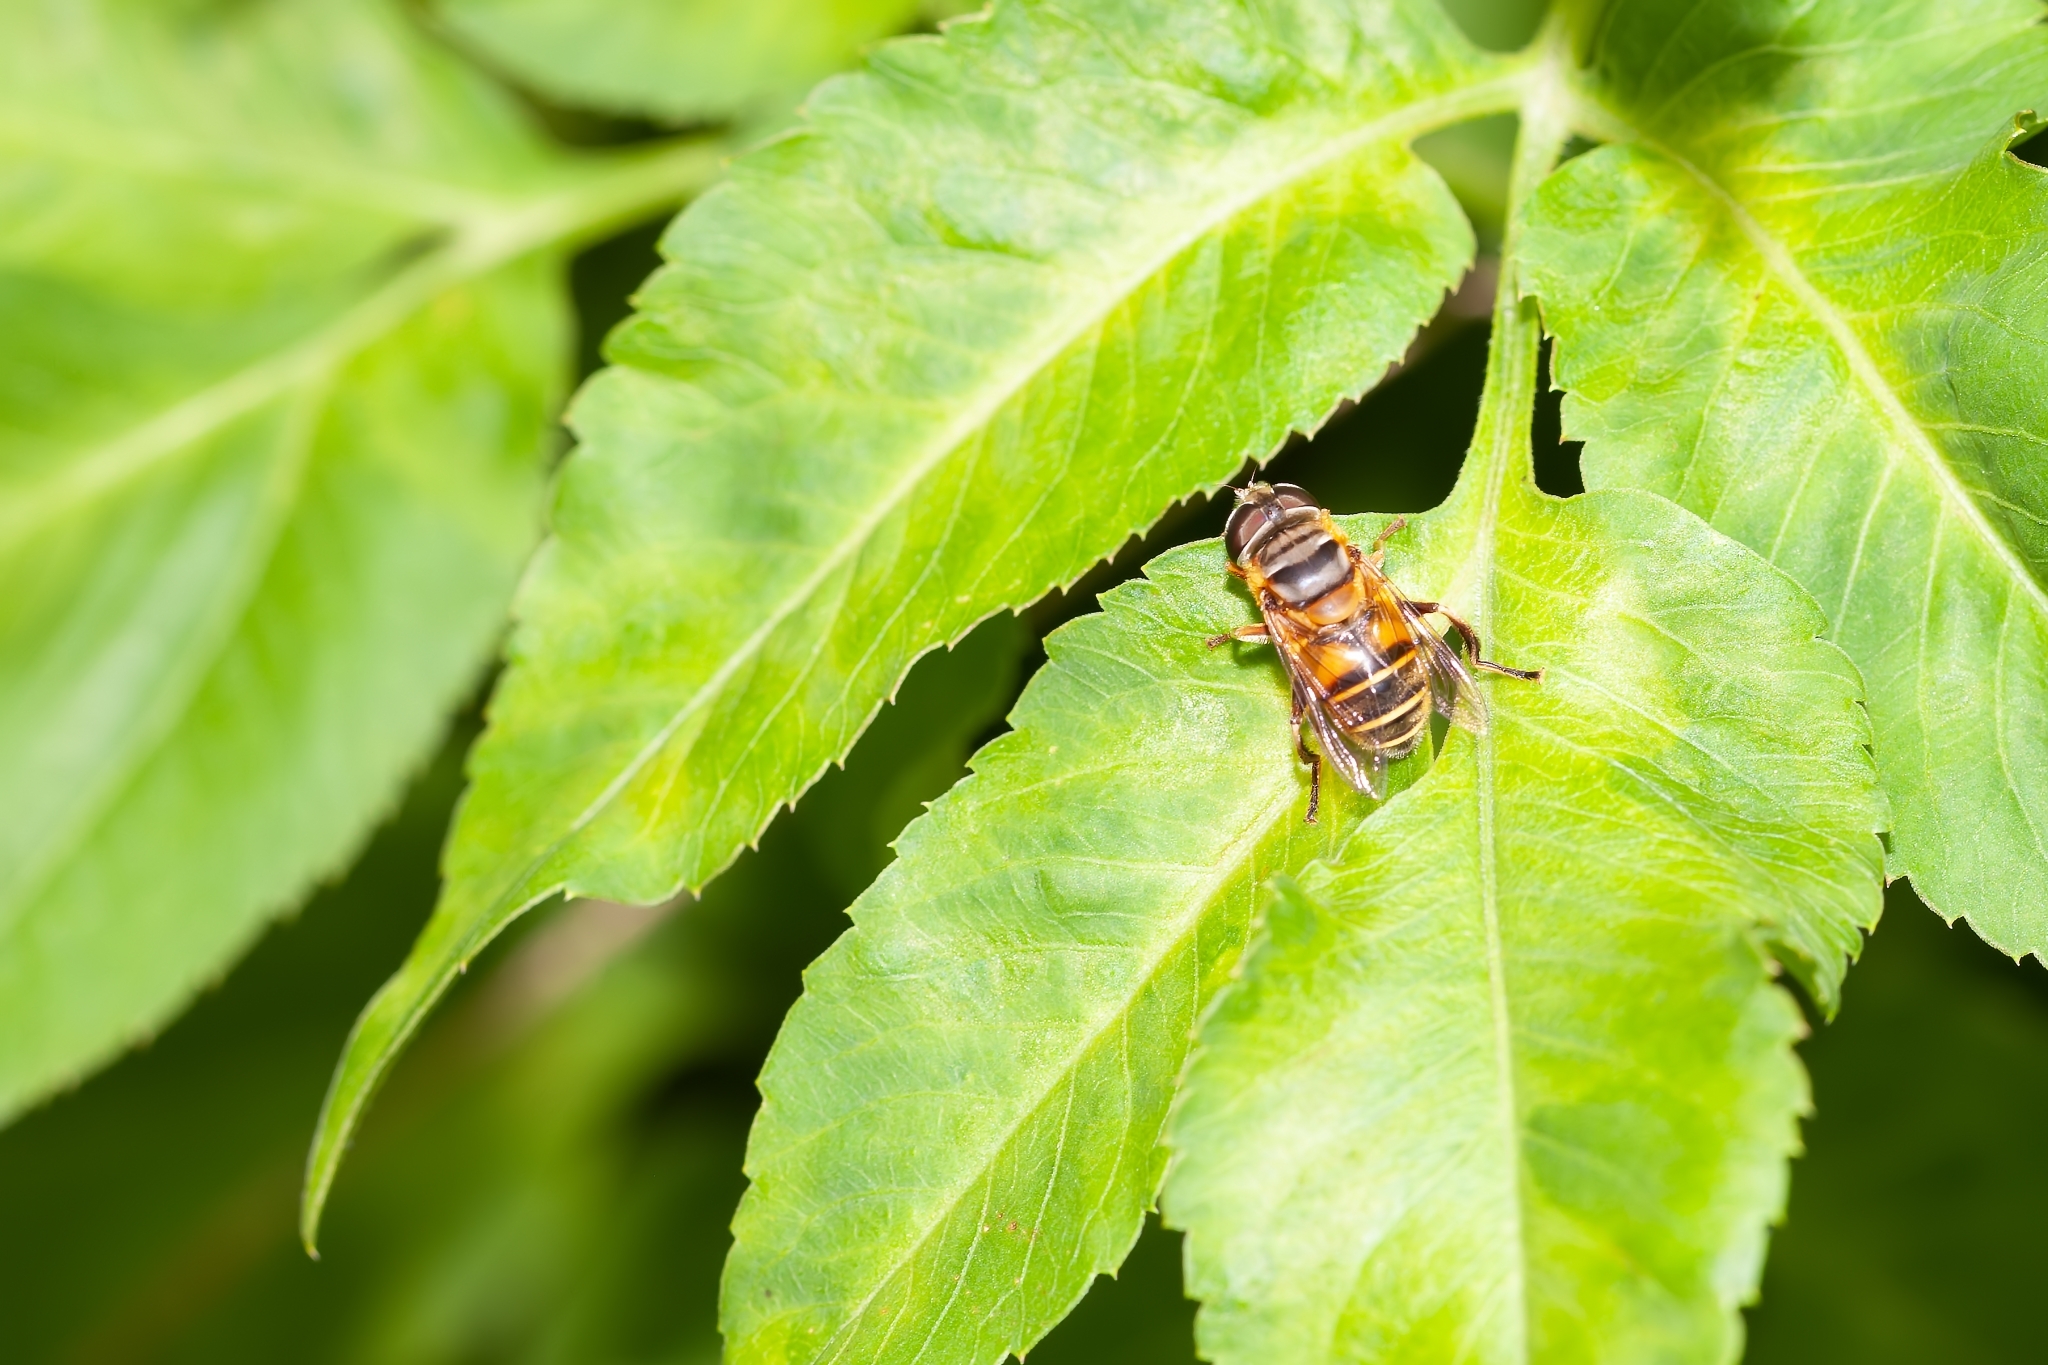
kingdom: Animalia
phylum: Arthropoda
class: Insecta
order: Diptera
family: Syrphidae
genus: Palpada
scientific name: Palpada vinetorum
